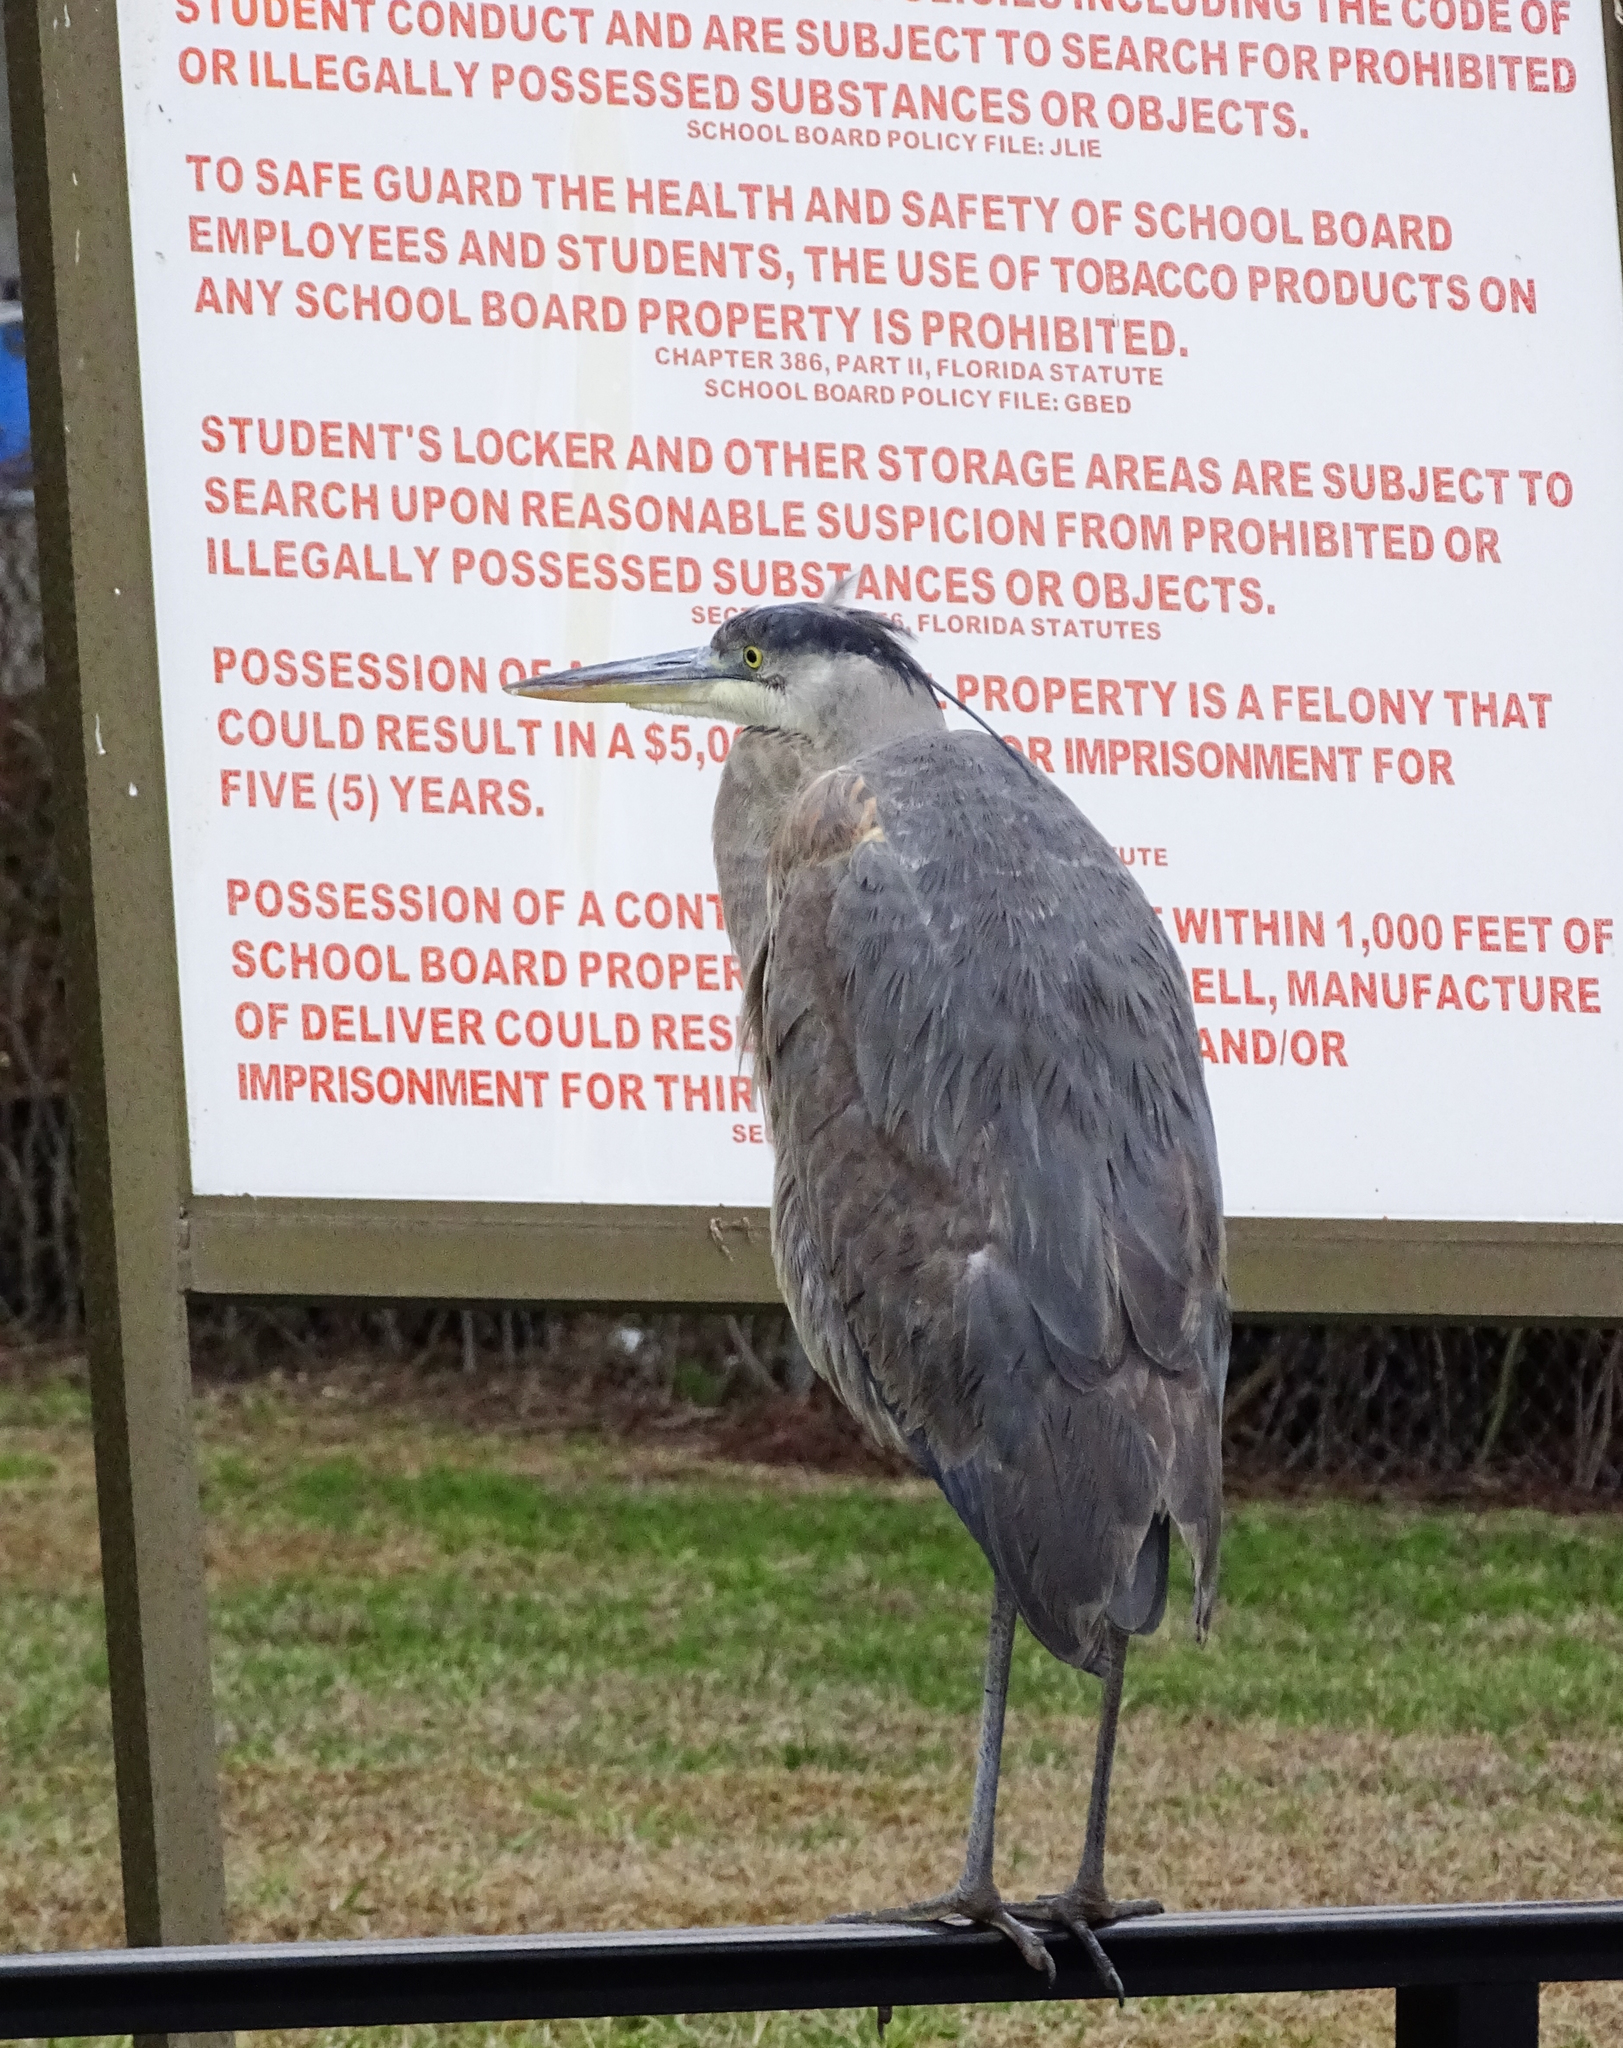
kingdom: Animalia
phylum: Chordata
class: Aves
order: Pelecaniformes
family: Ardeidae
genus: Ardea
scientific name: Ardea herodias
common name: Great blue heron
